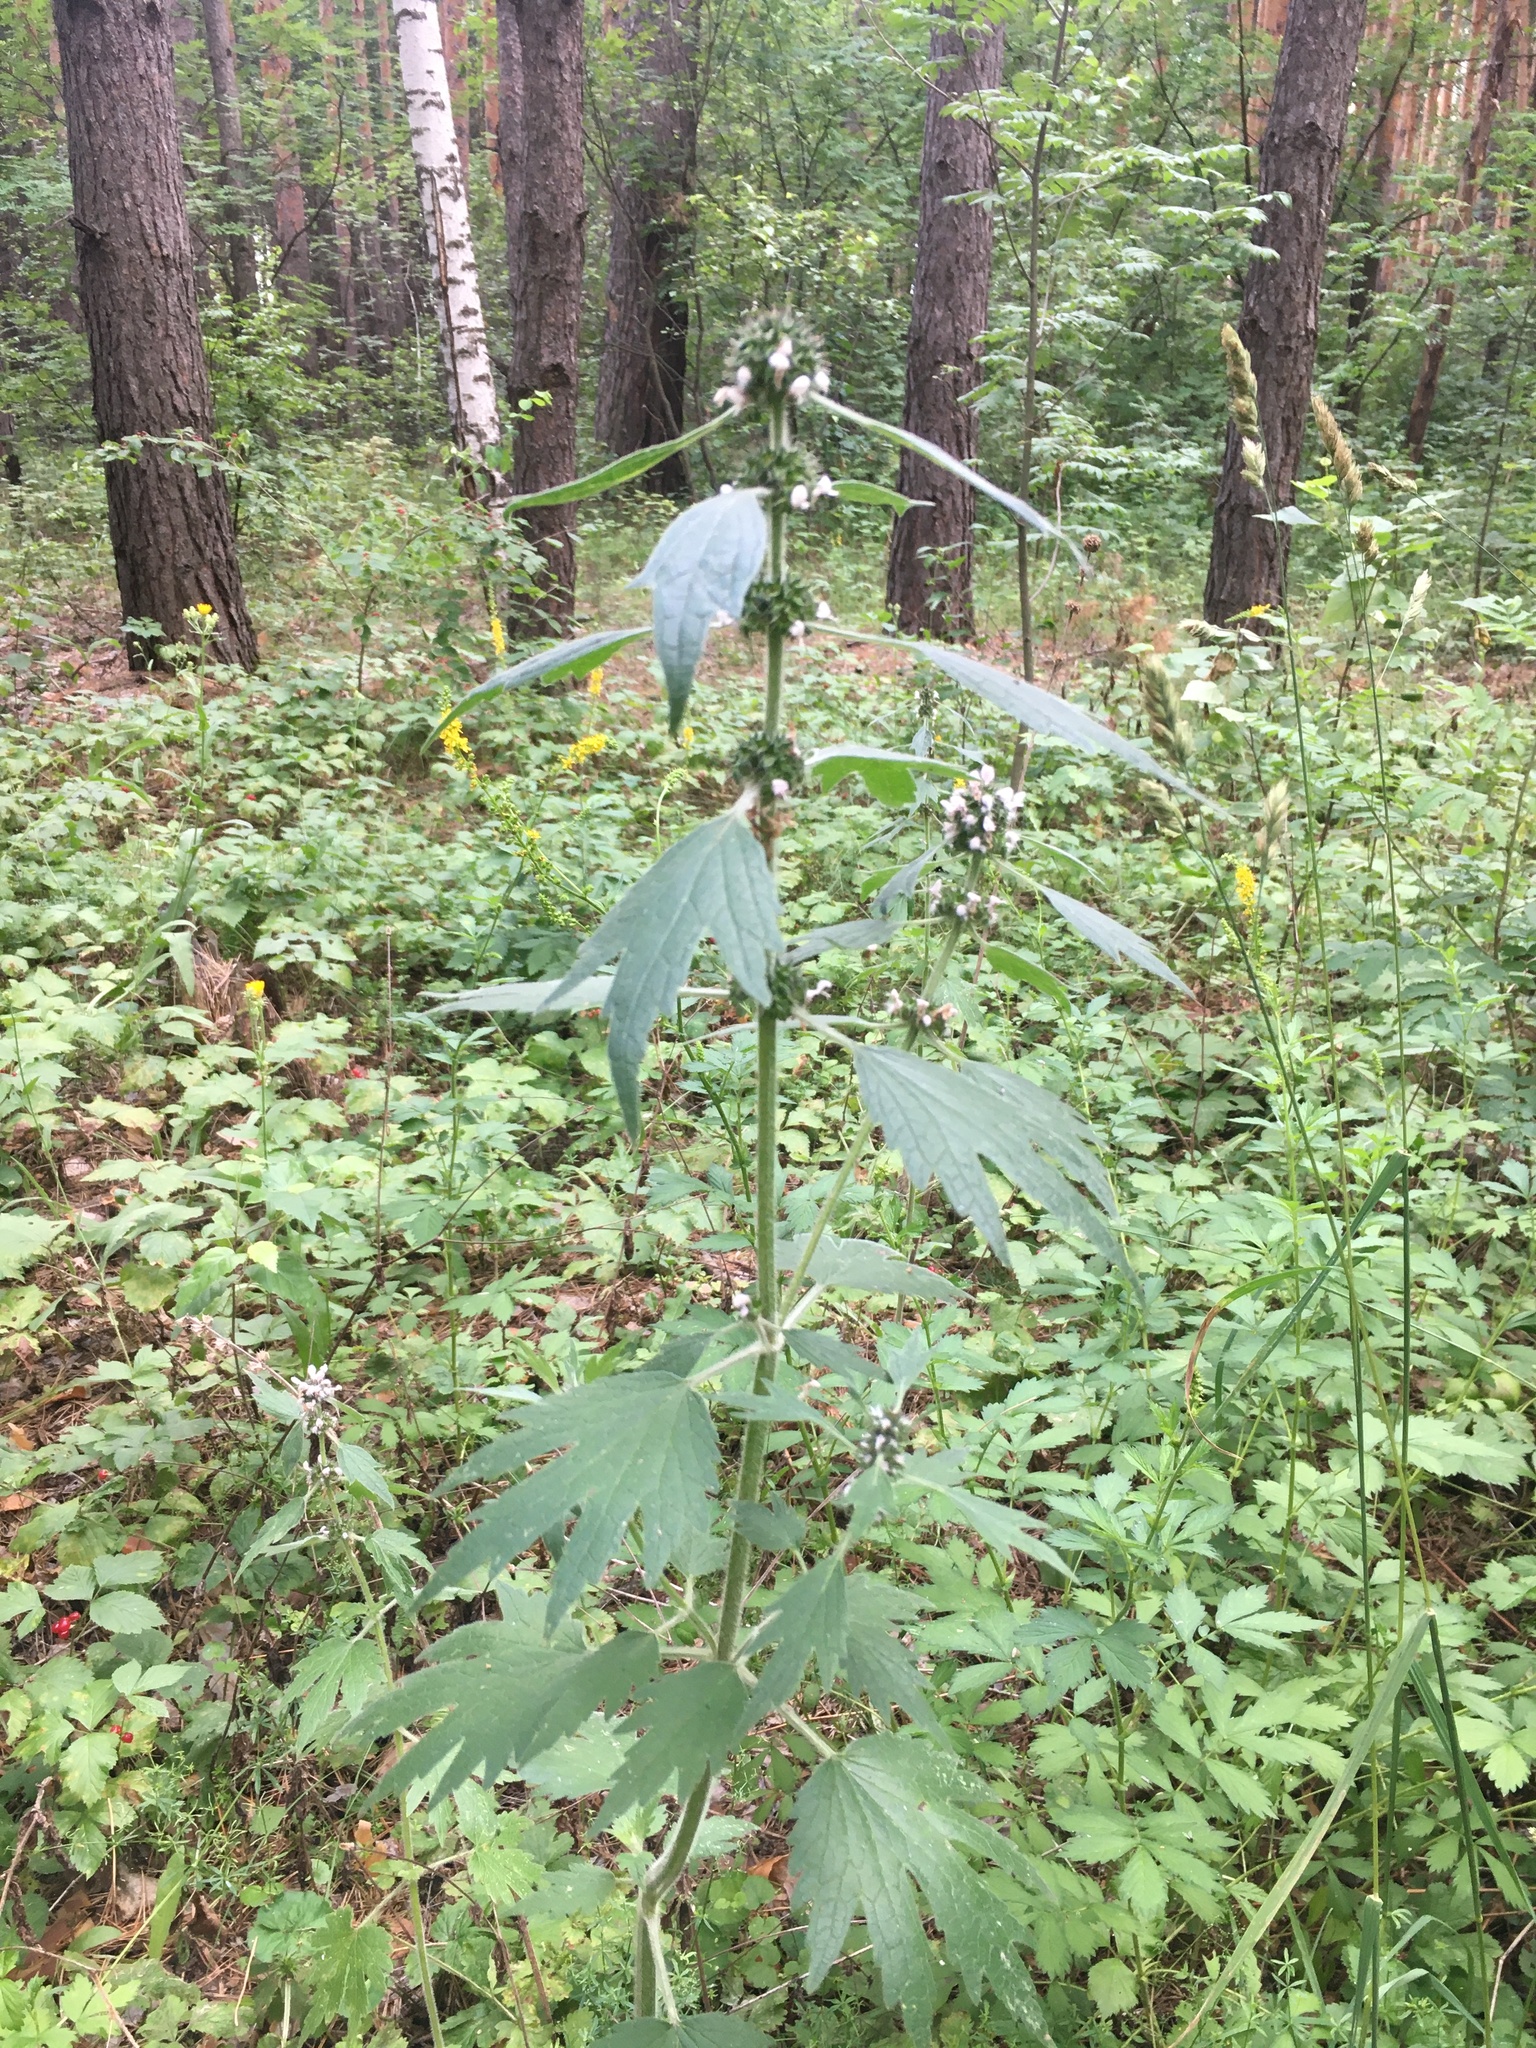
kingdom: Plantae
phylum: Tracheophyta
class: Magnoliopsida
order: Lamiales
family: Lamiaceae
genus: Leonurus
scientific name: Leonurus quinquelobatus
